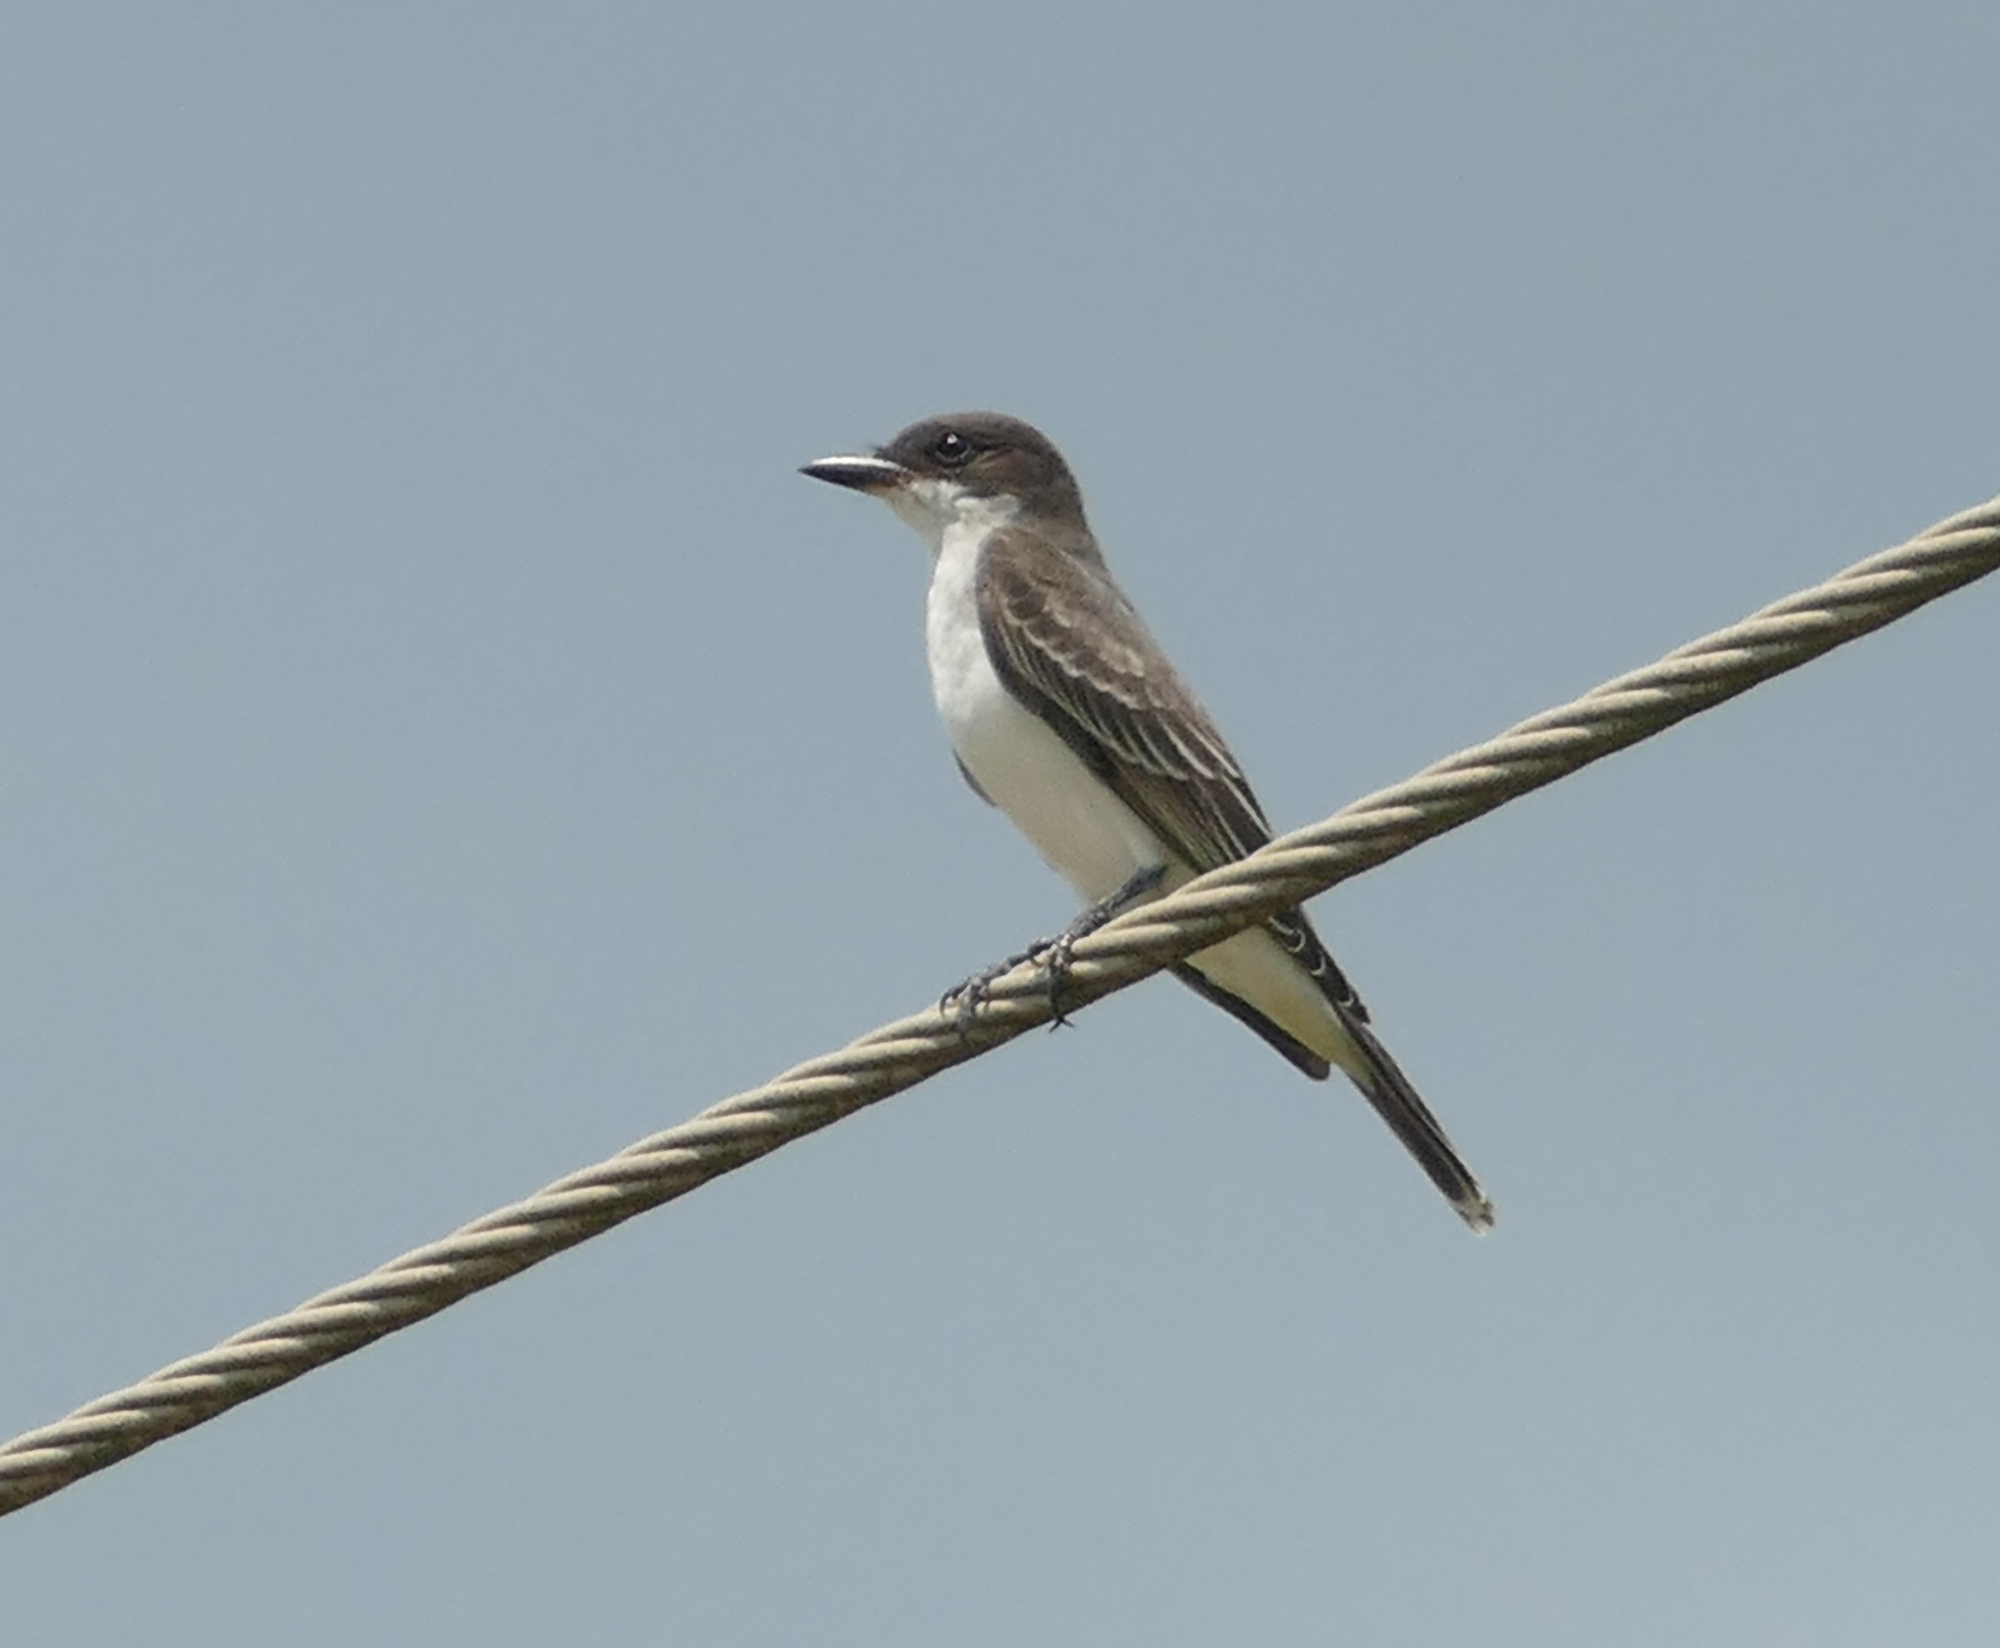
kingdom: Animalia
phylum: Chordata
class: Aves
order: Passeriformes
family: Tyrannidae
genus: Tyrannus
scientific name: Tyrannus tyrannus
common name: Eastern kingbird
